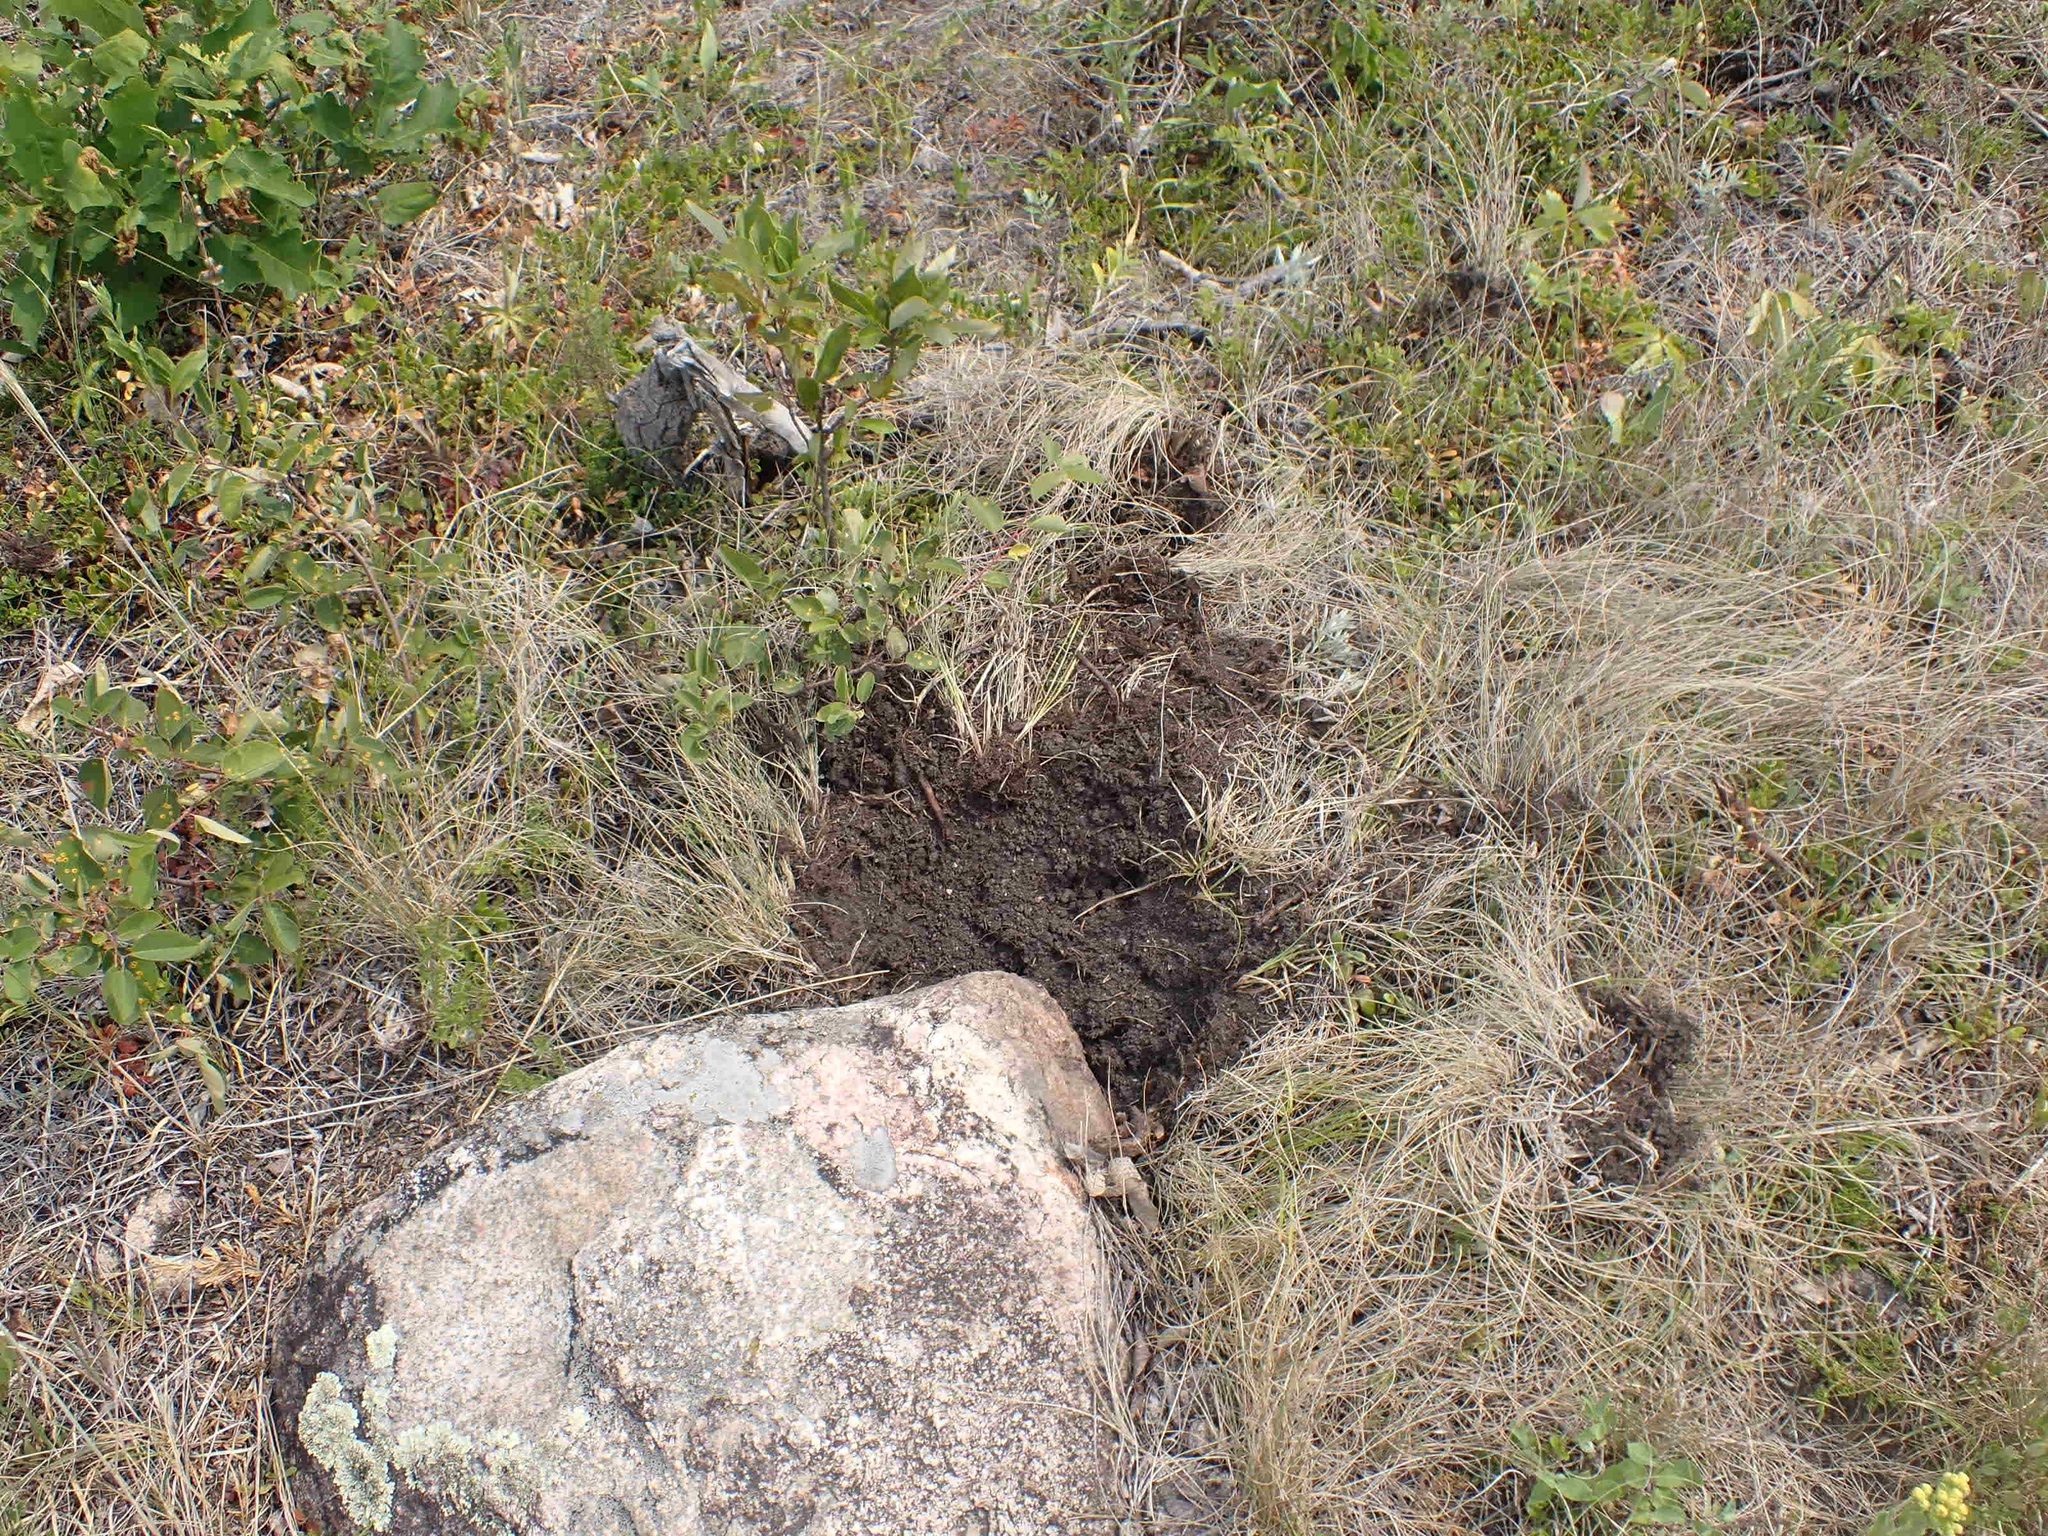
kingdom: Animalia
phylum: Chordata
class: Mammalia
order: Carnivora
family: Ursidae
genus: Ursus
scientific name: Ursus americanus
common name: American black bear
